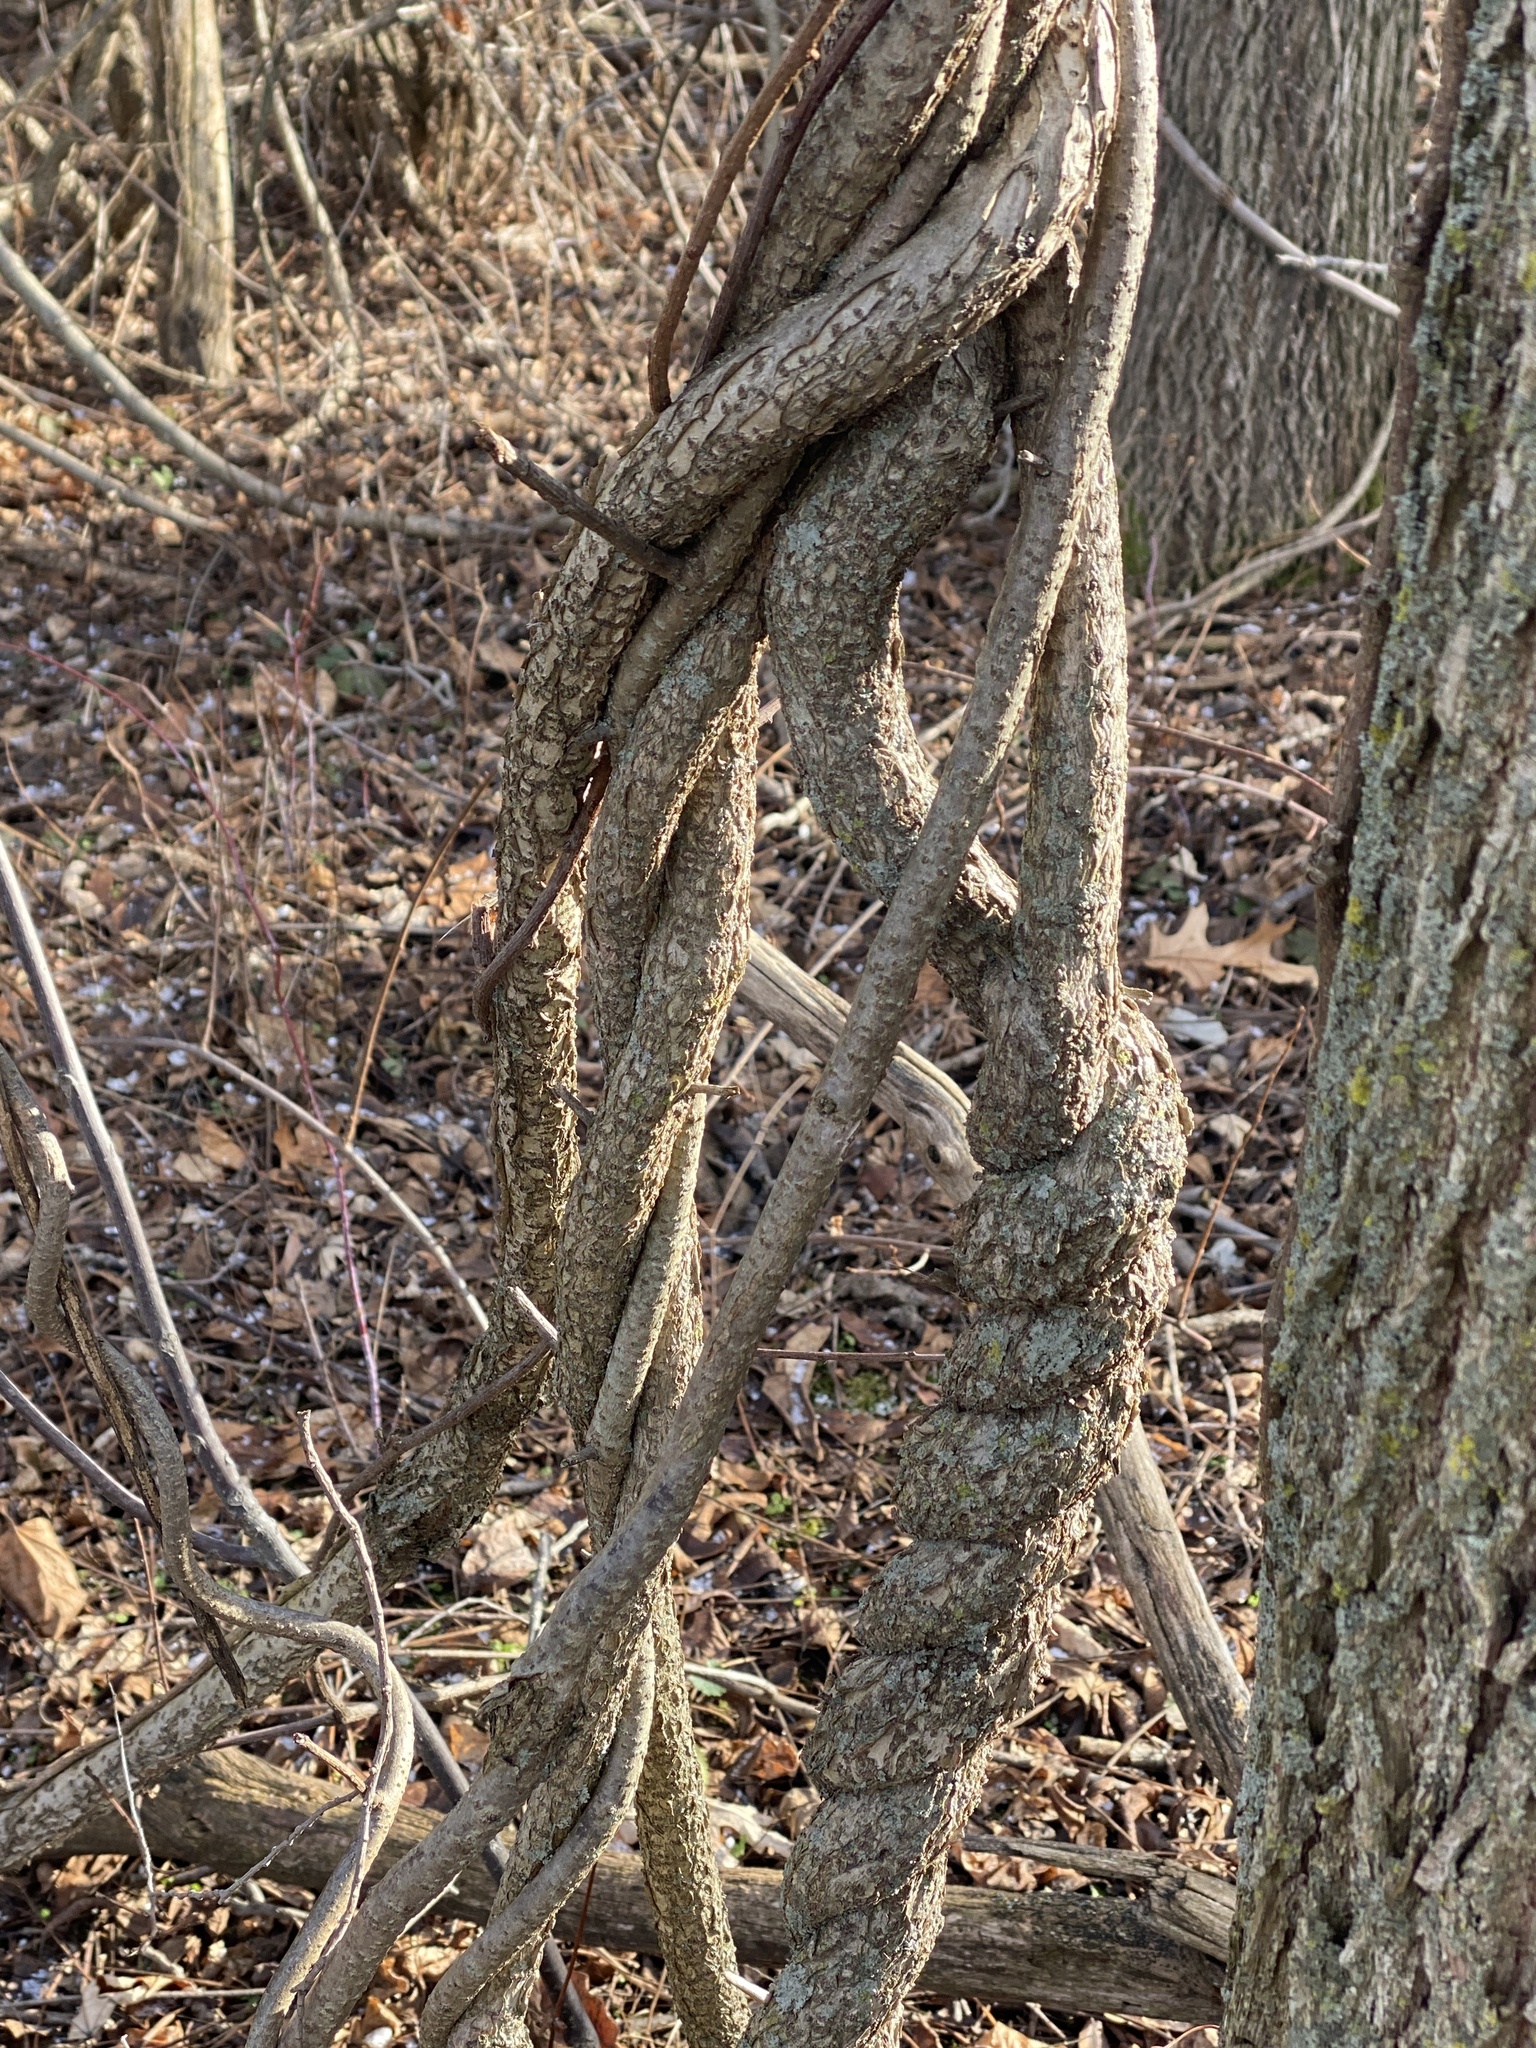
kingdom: Plantae
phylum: Tracheophyta
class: Magnoliopsida
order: Celastrales
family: Celastraceae
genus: Celastrus
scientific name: Celastrus orbiculatus
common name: Oriental bittersweet
